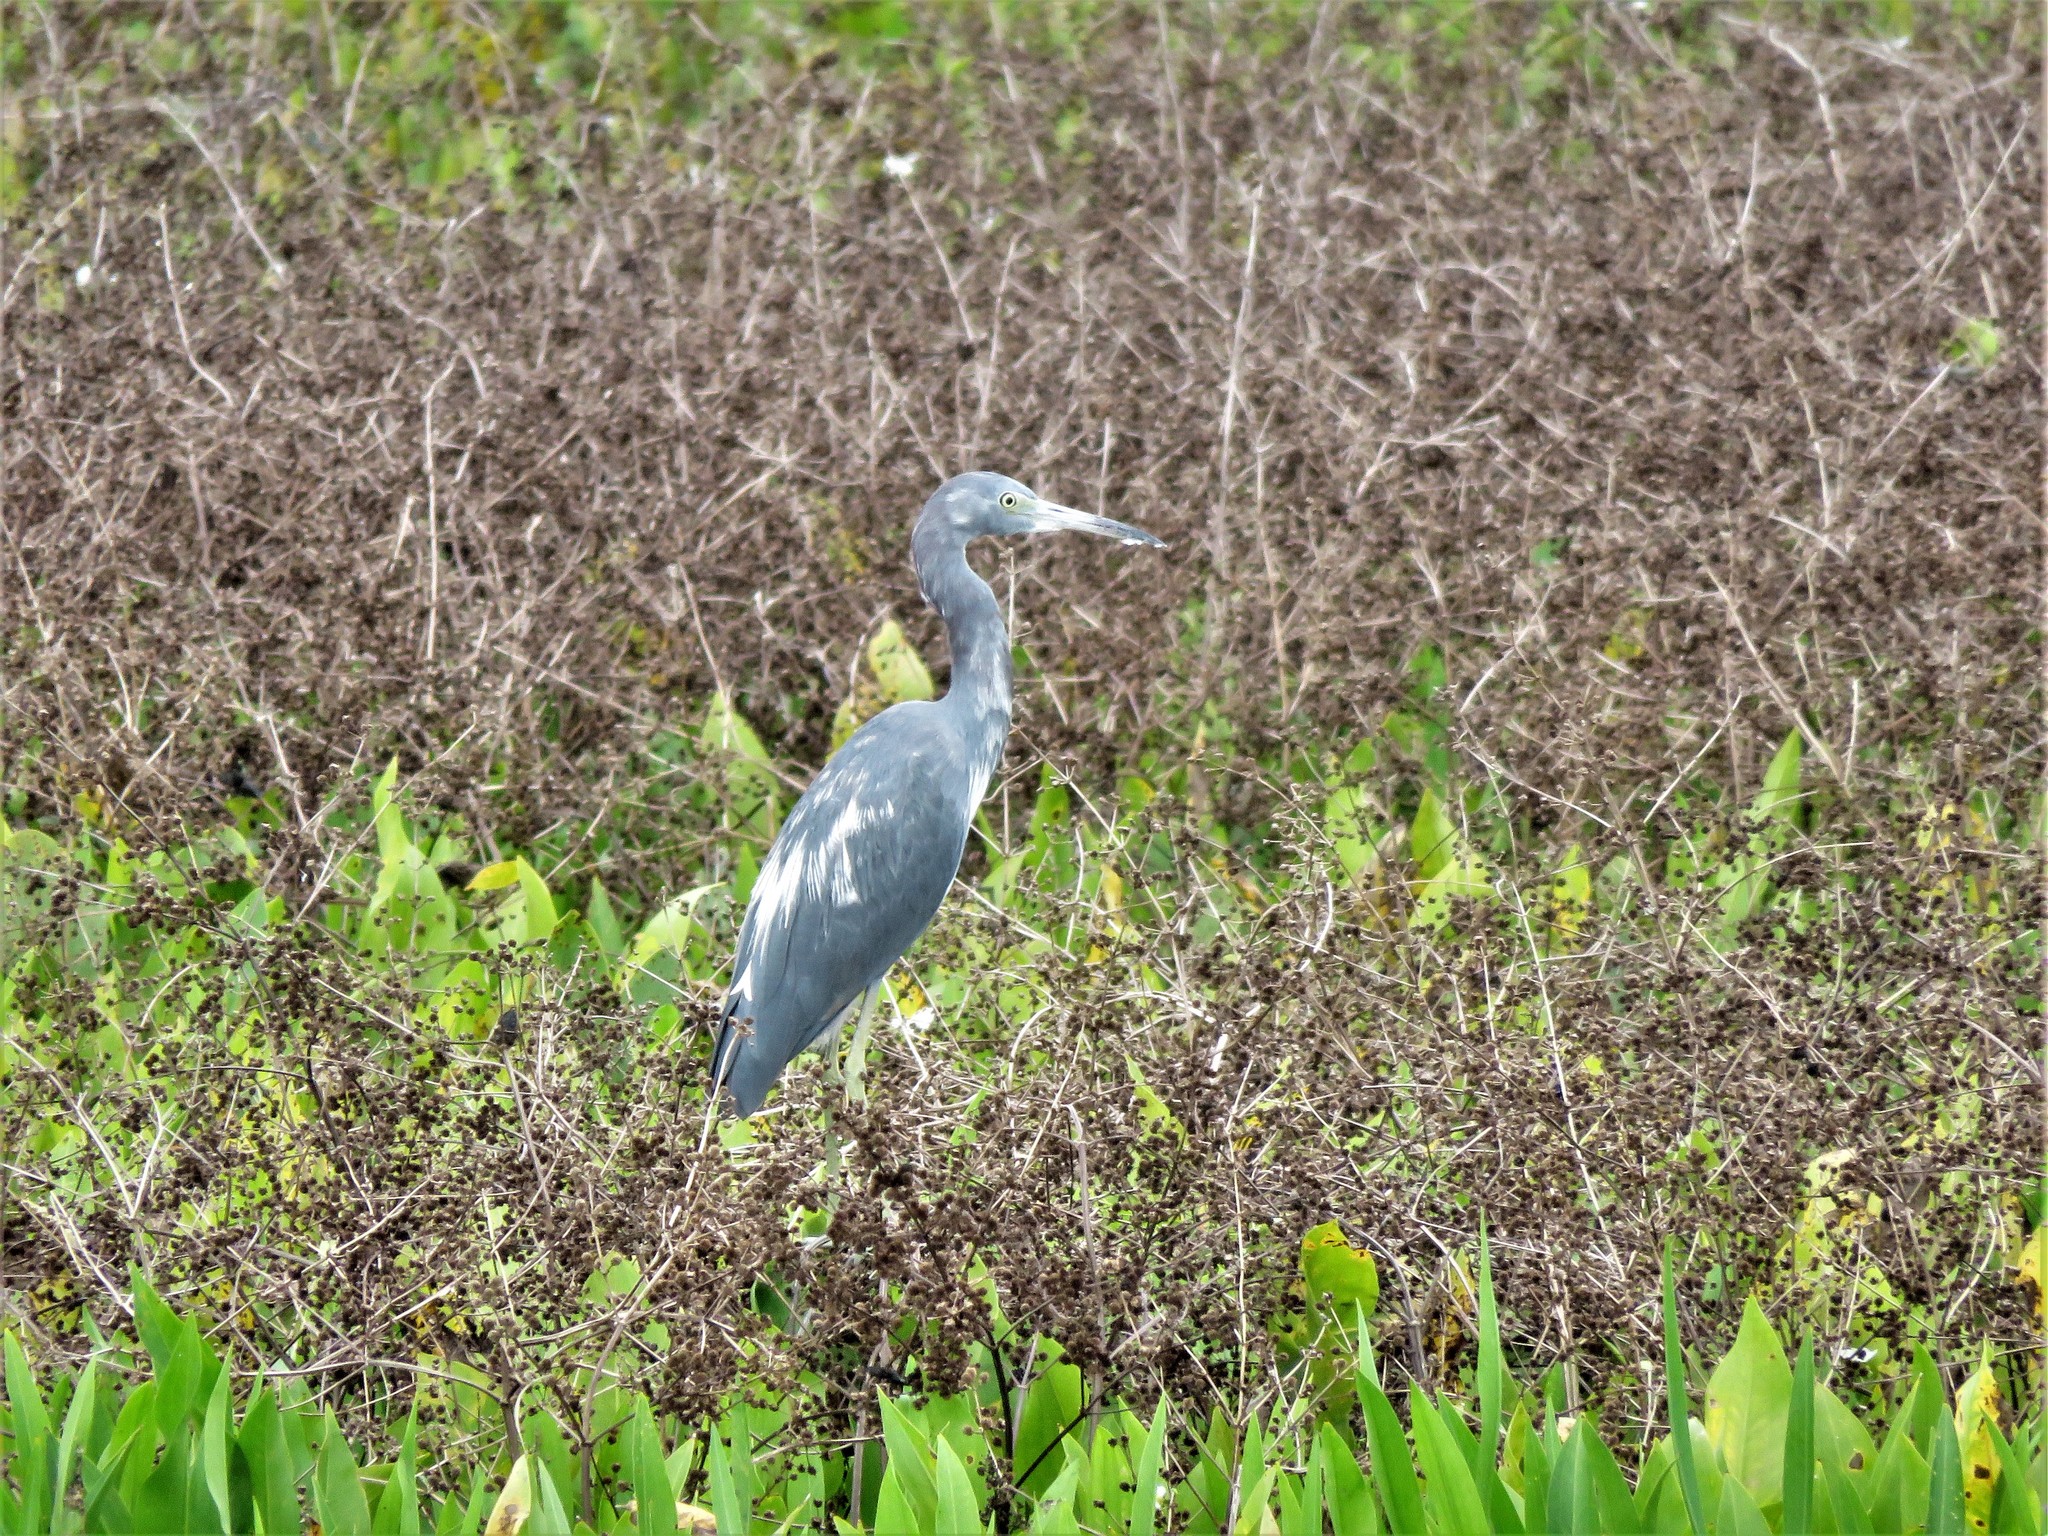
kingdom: Animalia
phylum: Chordata
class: Aves
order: Pelecaniformes
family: Ardeidae
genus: Egretta
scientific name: Egretta caerulea
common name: Little blue heron
